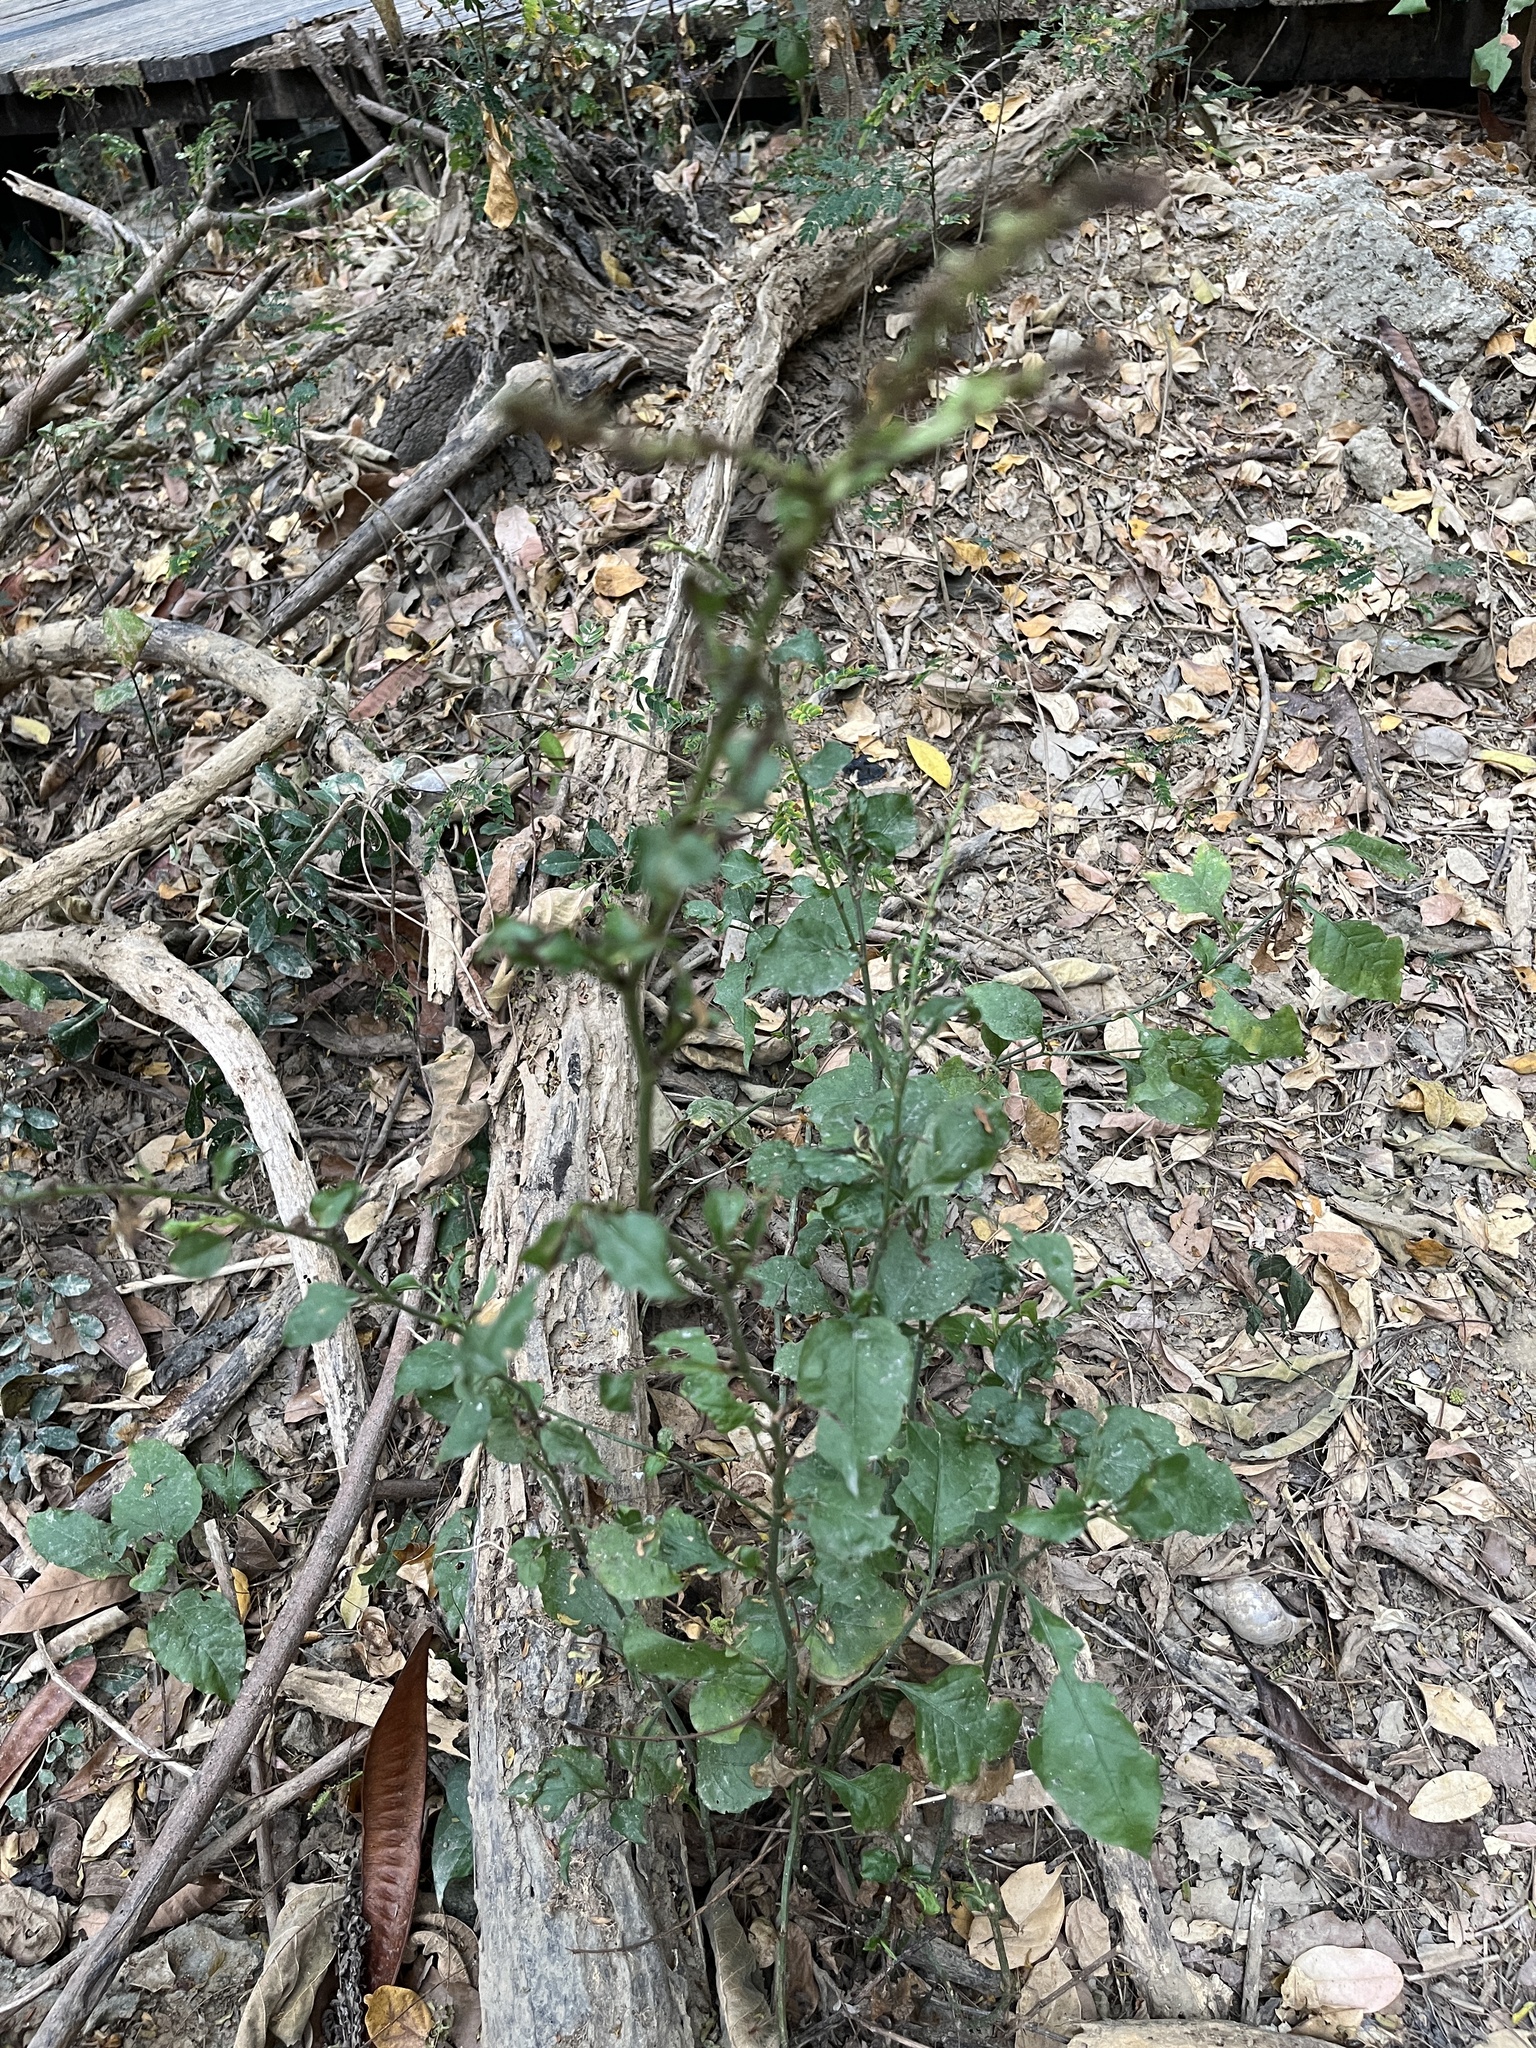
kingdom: Plantae
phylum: Tracheophyta
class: Magnoliopsida
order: Caryophyllales
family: Plumbaginaceae
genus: Plumbago
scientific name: Plumbago zeylanica
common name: Doctorbush
